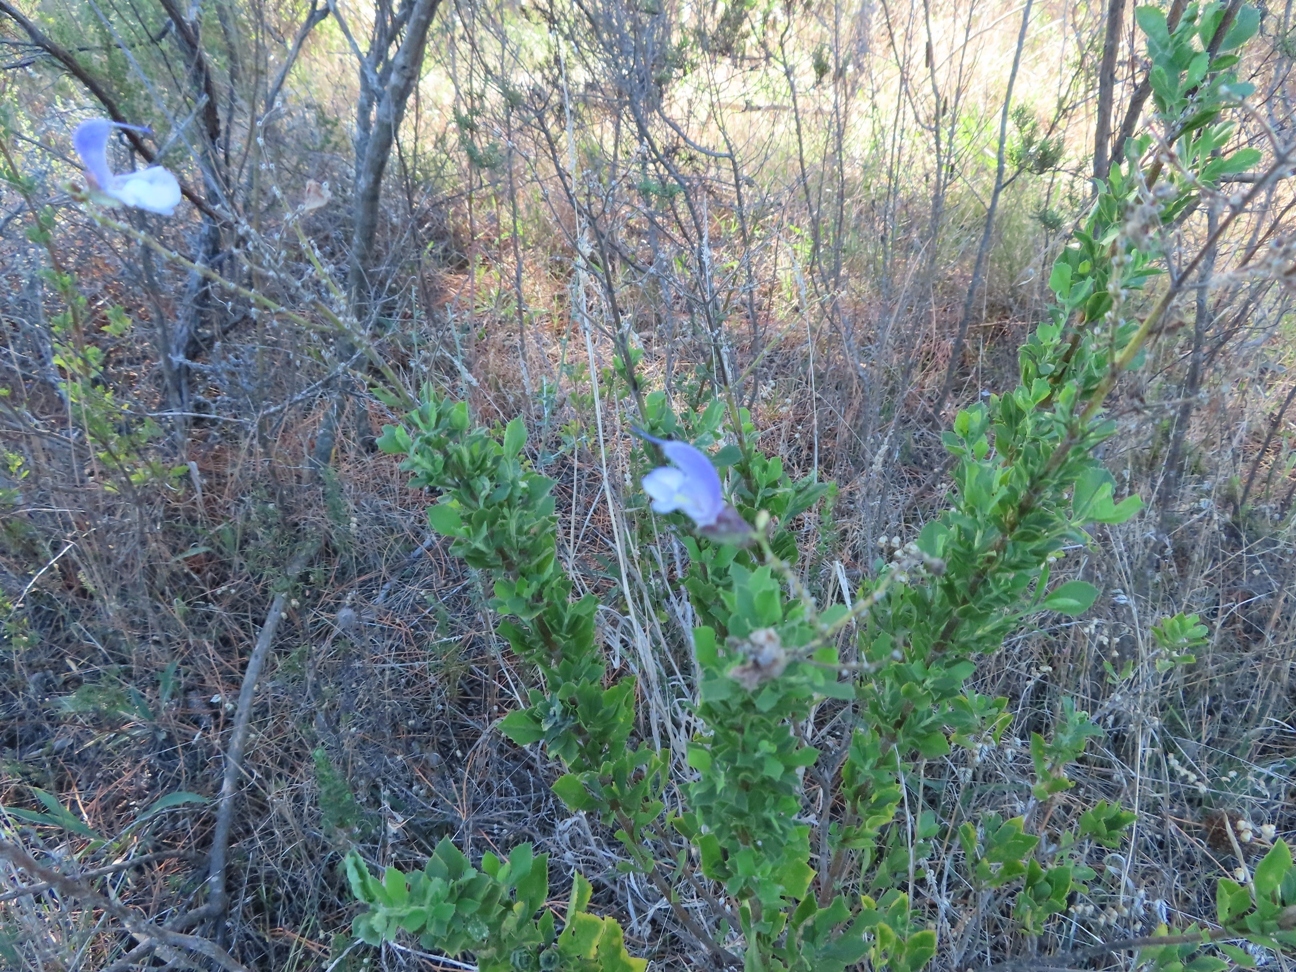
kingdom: Plantae
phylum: Tracheophyta
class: Magnoliopsida
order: Lamiales
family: Lamiaceae
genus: Salvia
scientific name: Salvia chamelaeagnea
